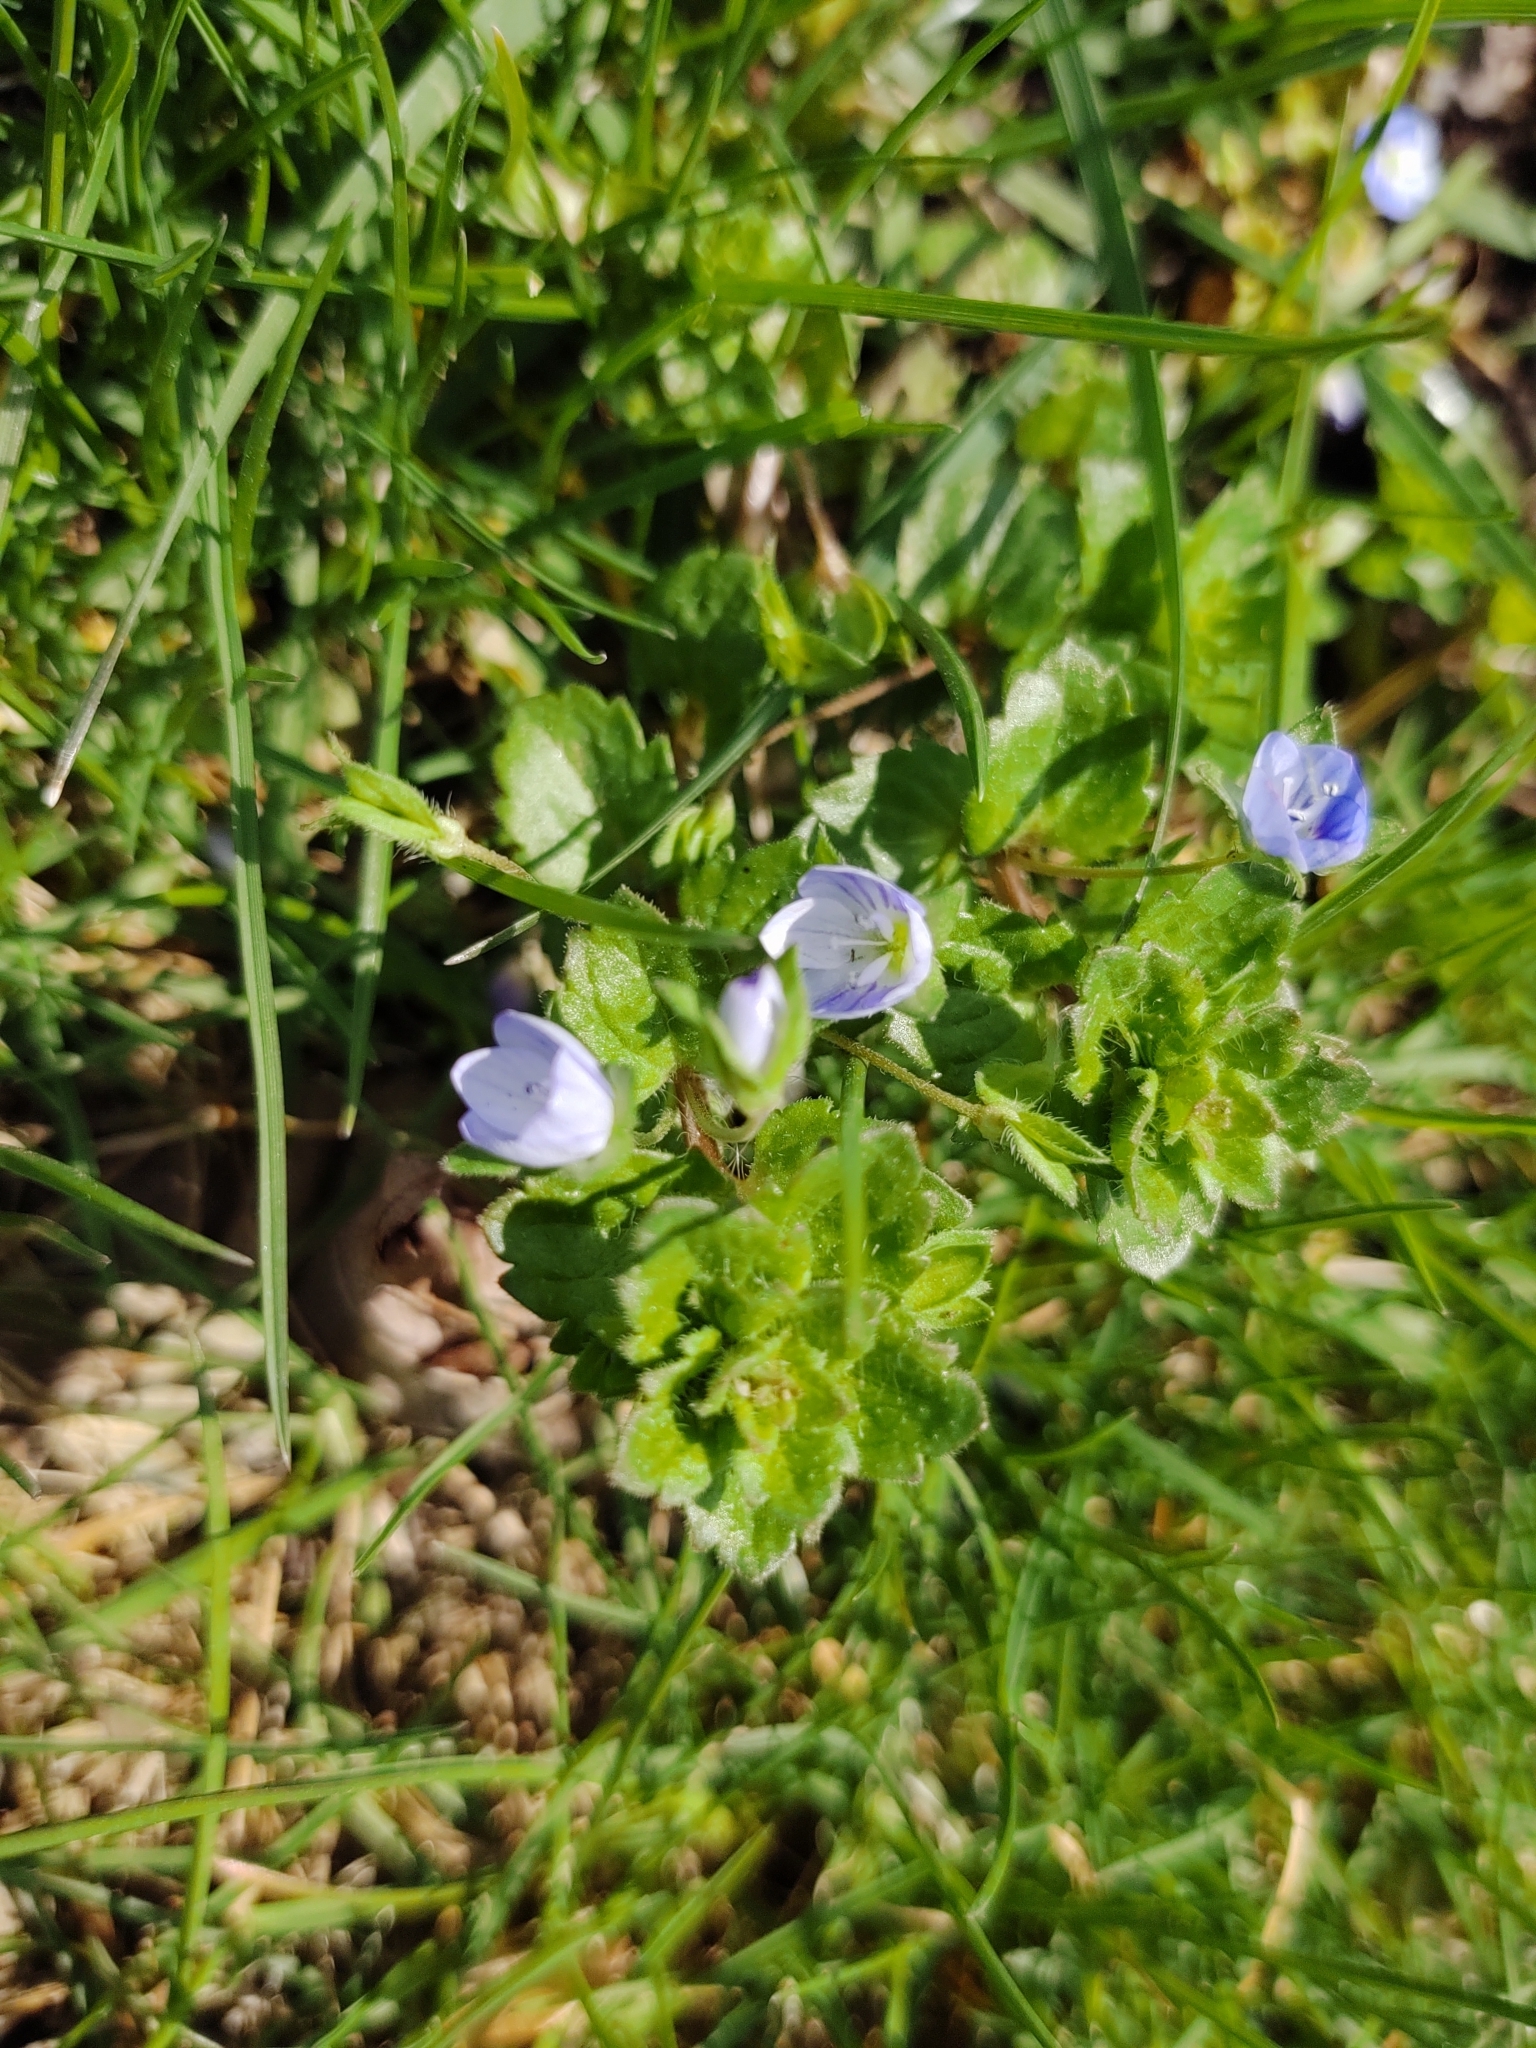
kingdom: Plantae
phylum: Tracheophyta
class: Magnoliopsida
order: Lamiales
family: Plantaginaceae
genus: Veronica
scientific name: Veronica persica
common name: Common field-speedwell
